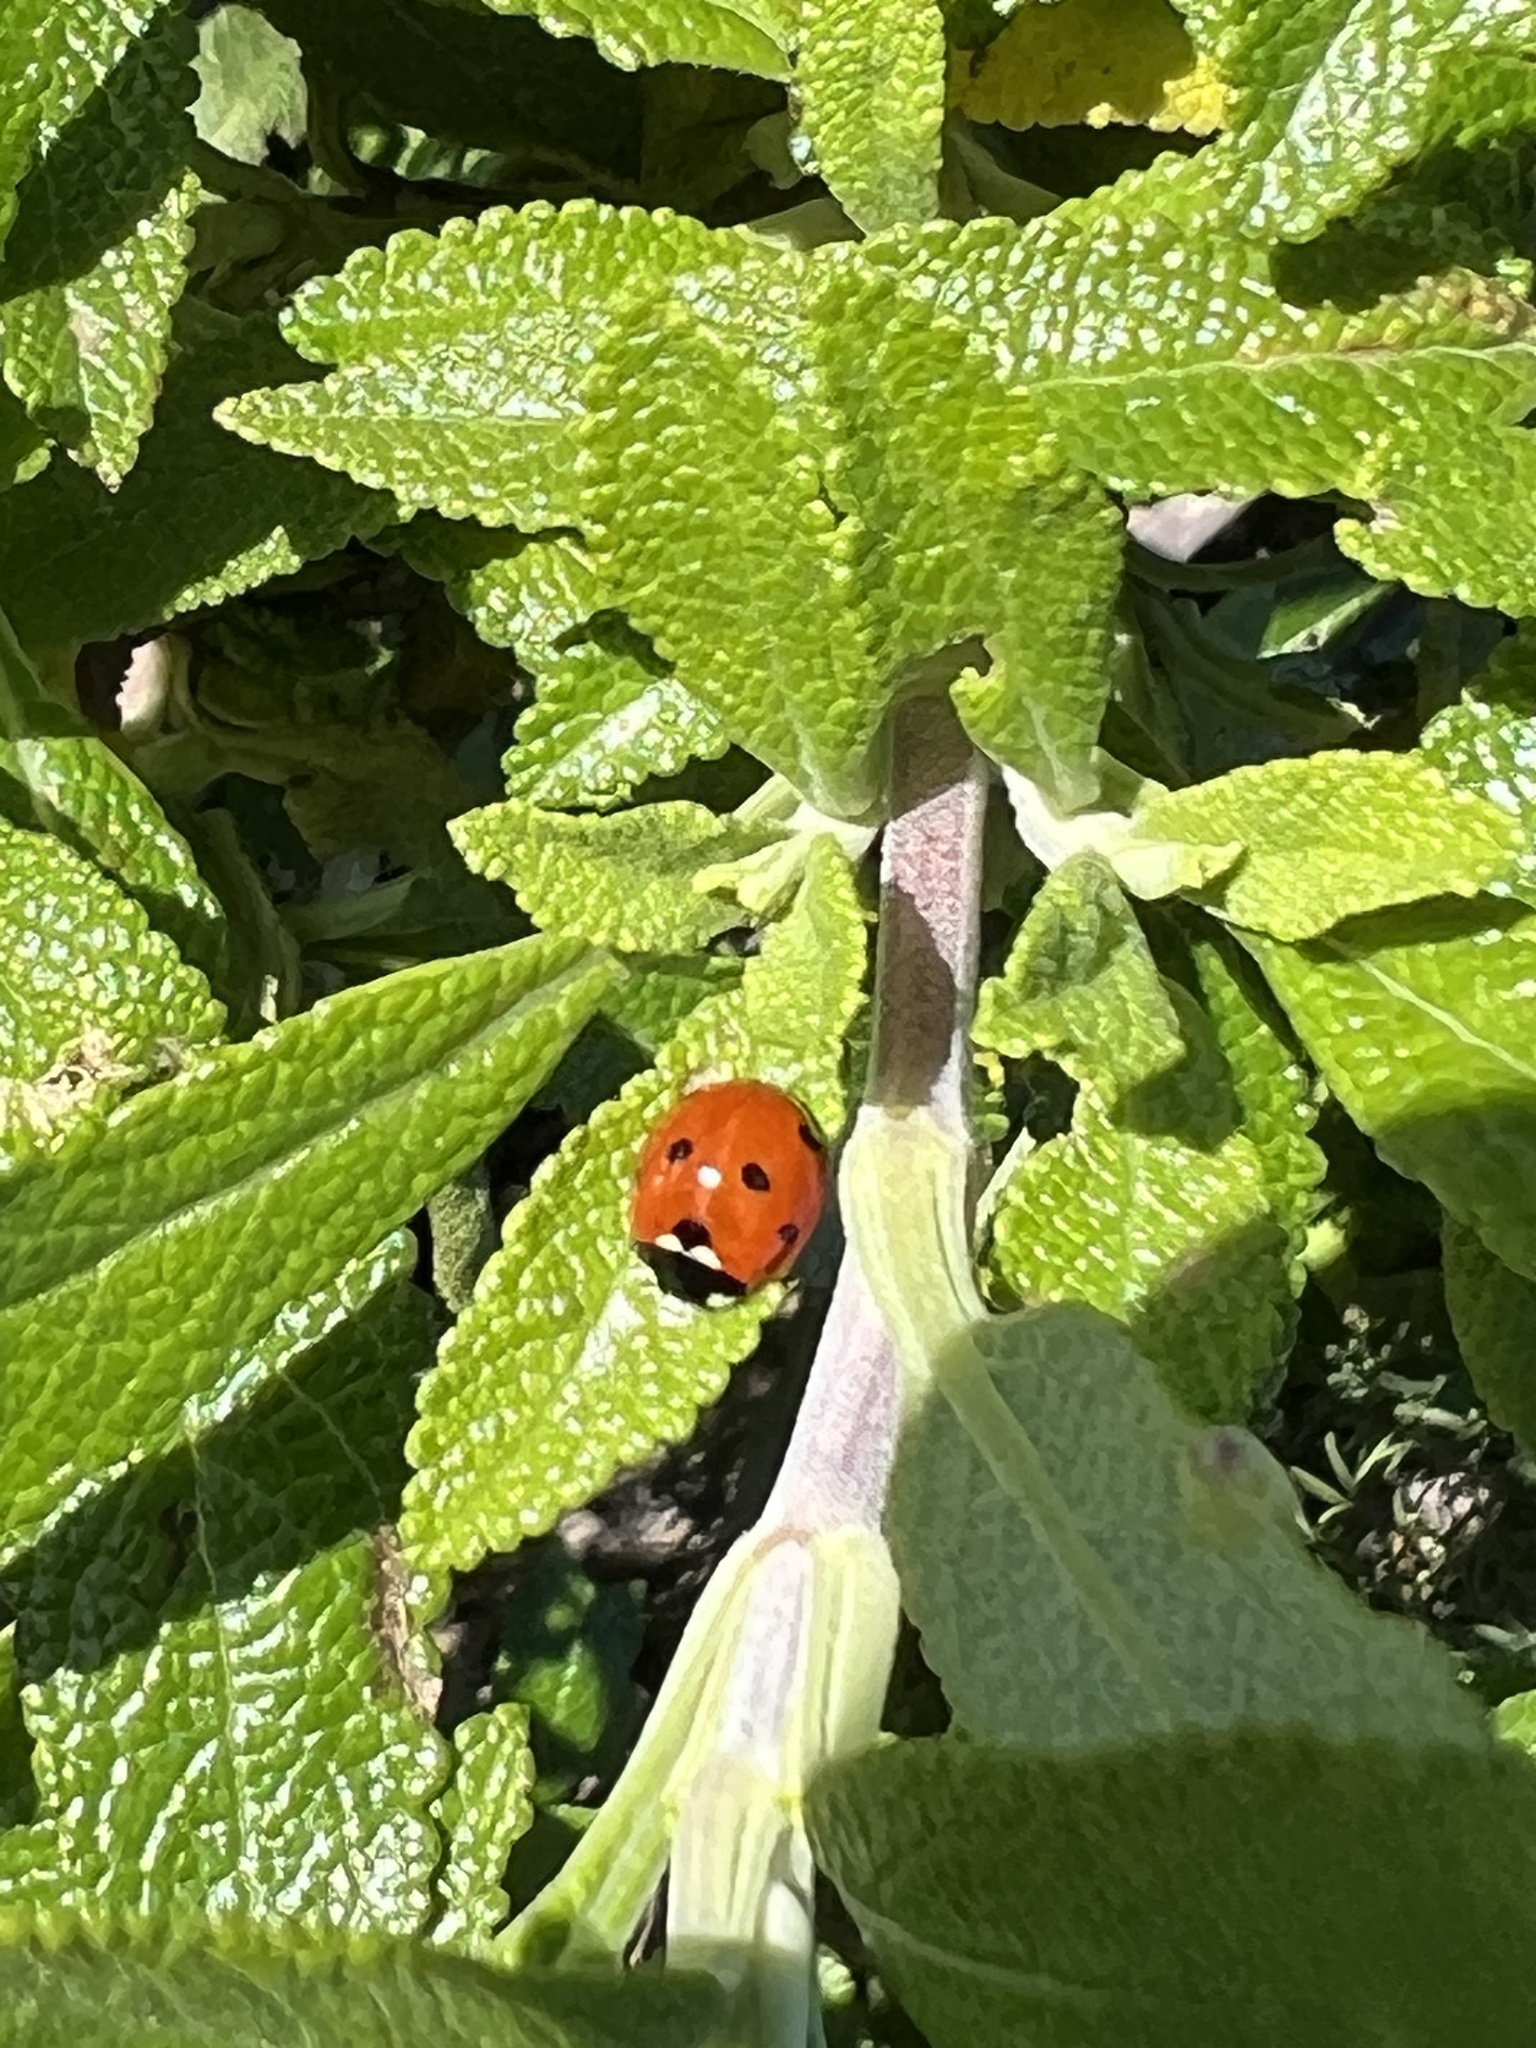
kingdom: Animalia
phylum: Arthropoda
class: Insecta
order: Coleoptera
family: Coccinellidae
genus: Coccinella
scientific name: Coccinella septempunctata
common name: Sevenspotted lady beetle
